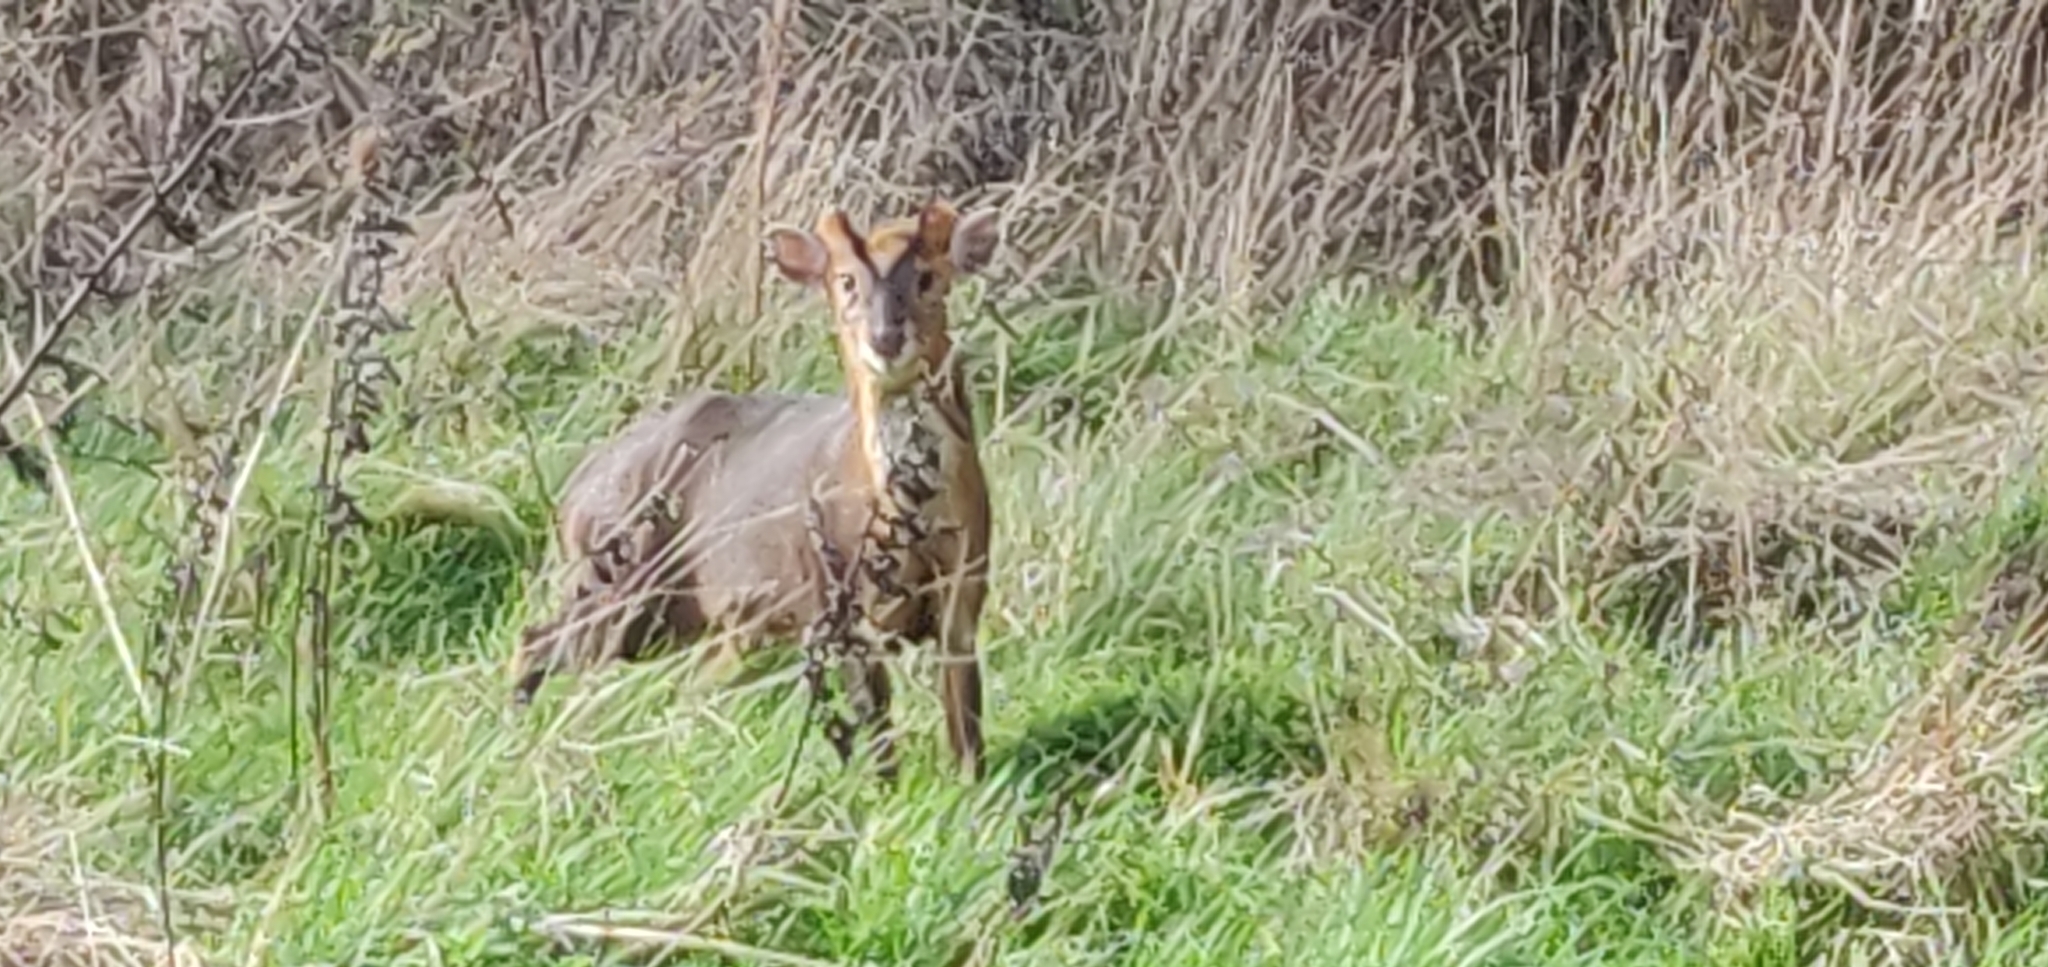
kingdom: Animalia
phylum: Chordata
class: Mammalia
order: Artiodactyla
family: Cervidae
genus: Muntiacus
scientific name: Muntiacus reevesi
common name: Reeves' muntjac
